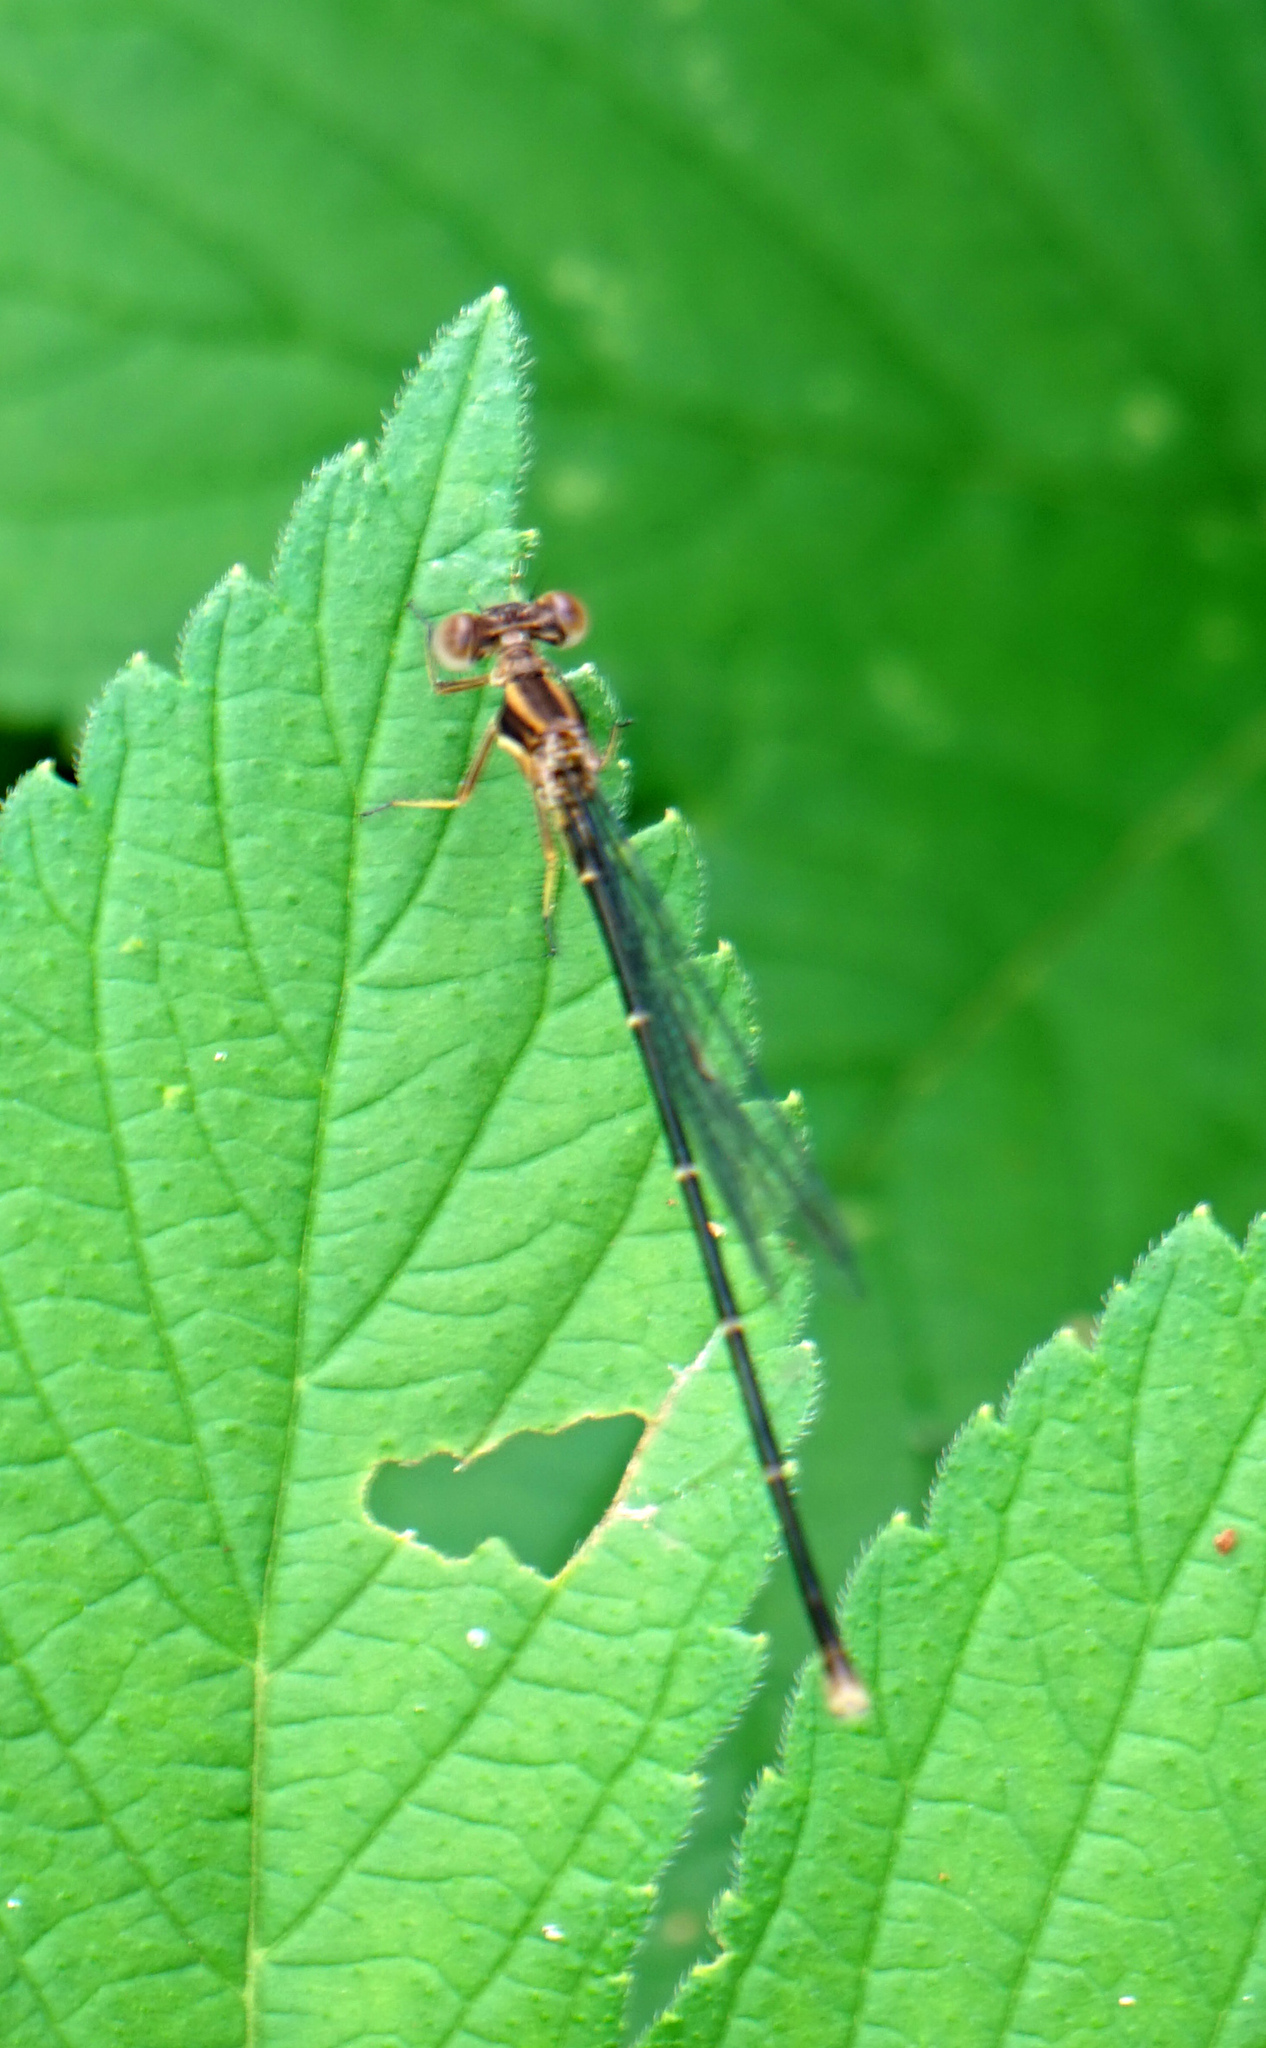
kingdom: Animalia
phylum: Arthropoda
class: Insecta
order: Odonata
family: Coenagrionidae
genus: Argia
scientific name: Argia tibialis
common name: Blue-tipped dancer
